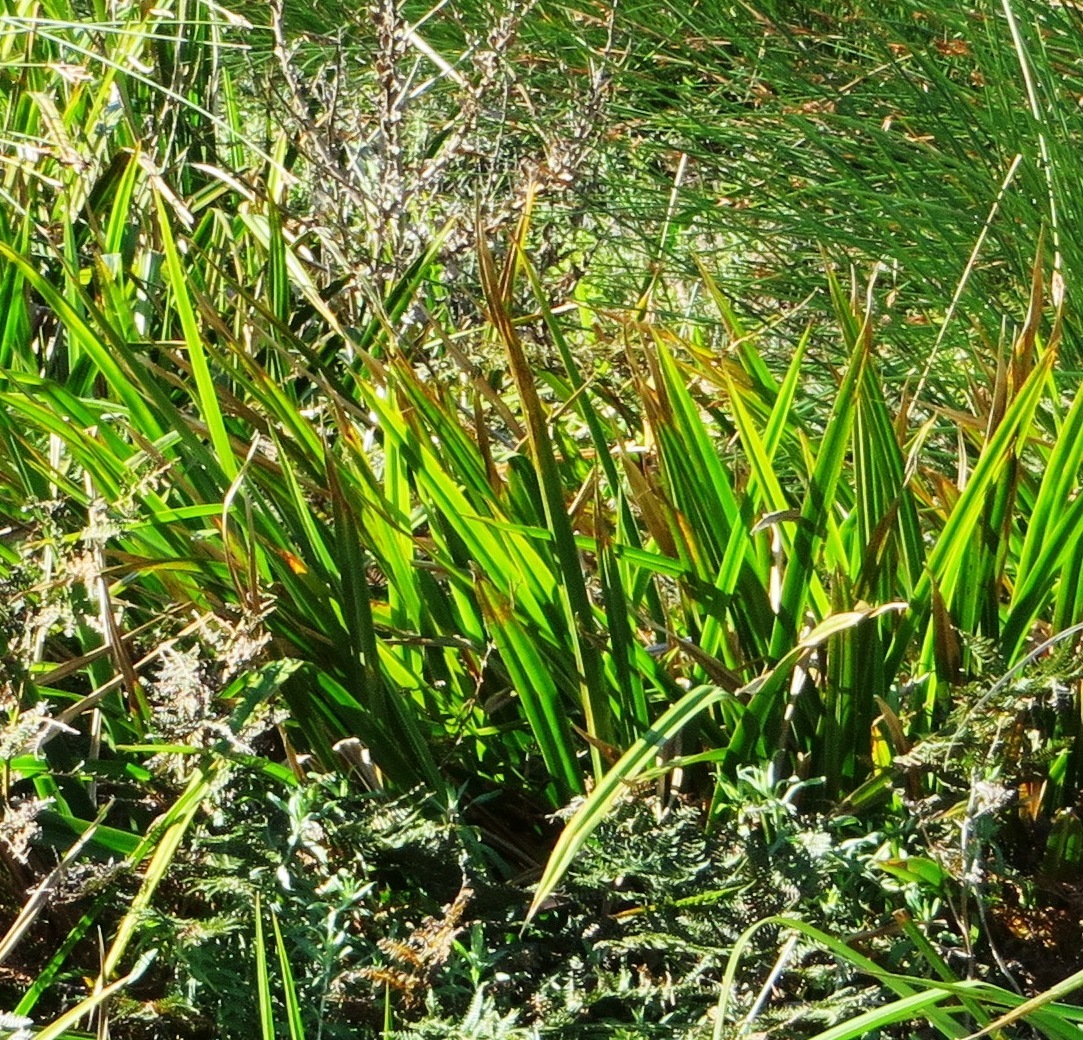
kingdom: Plantae
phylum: Tracheophyta
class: Liliopsida
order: Commelinales
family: Haemodoraceae
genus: Wachendorfia
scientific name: Wachendorfia thyrsiflora
